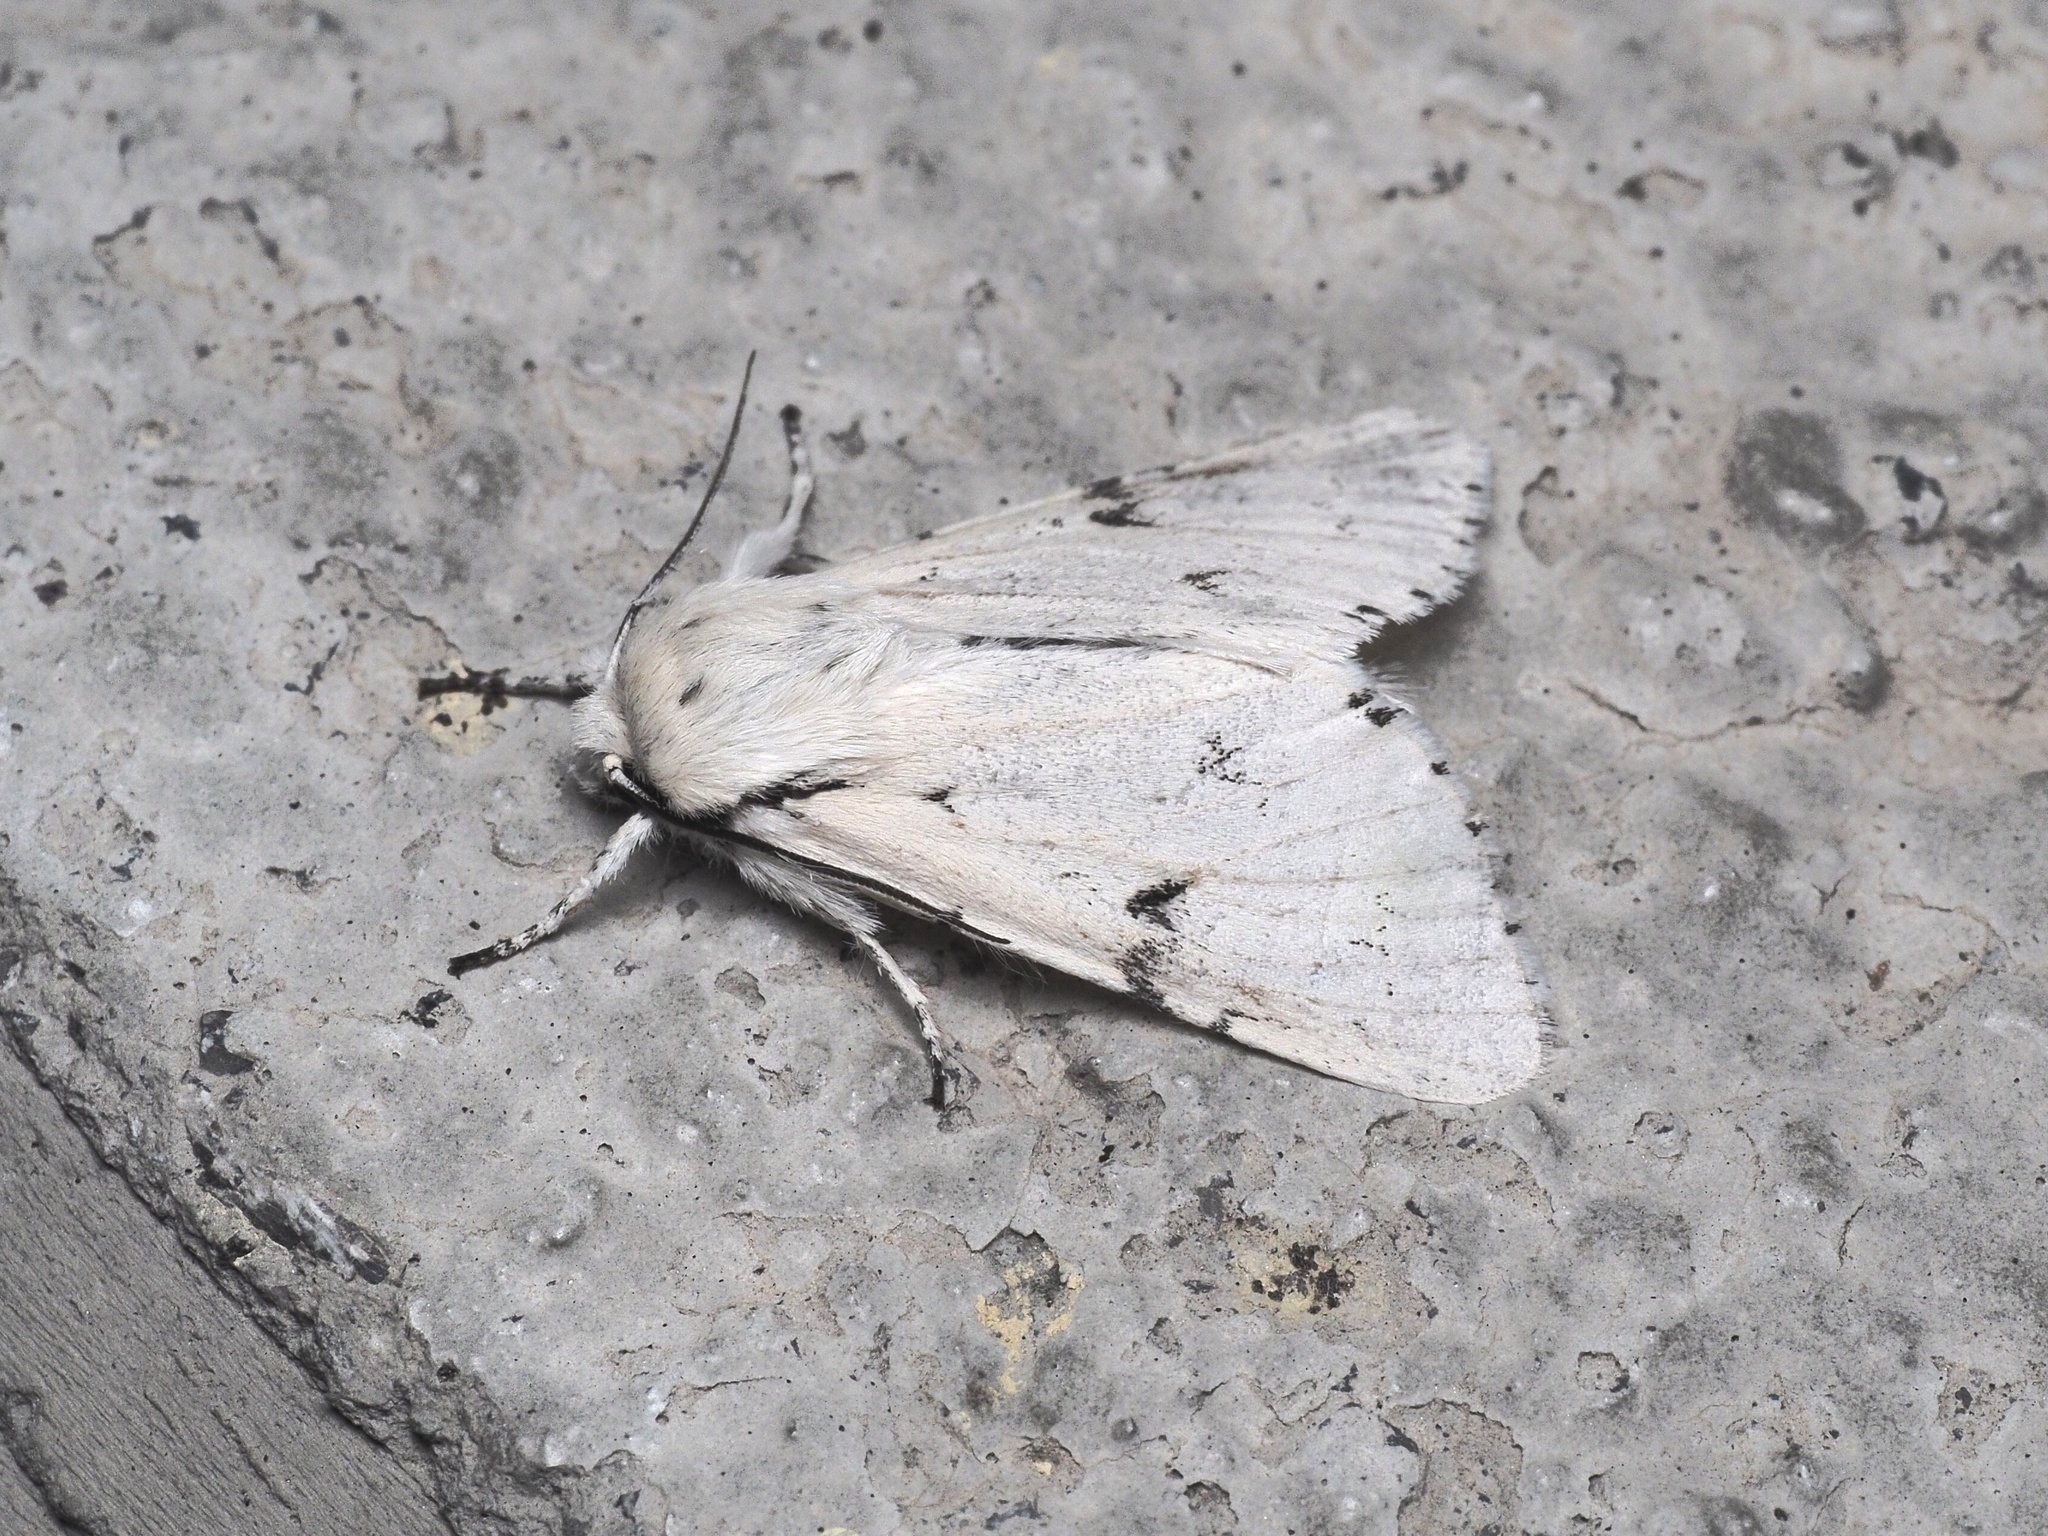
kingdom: Animalia
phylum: Arthropoda
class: Insecta
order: Lepidoptera
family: Noctuidae
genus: Acronicta
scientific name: Acronicta leporina
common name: Miller
